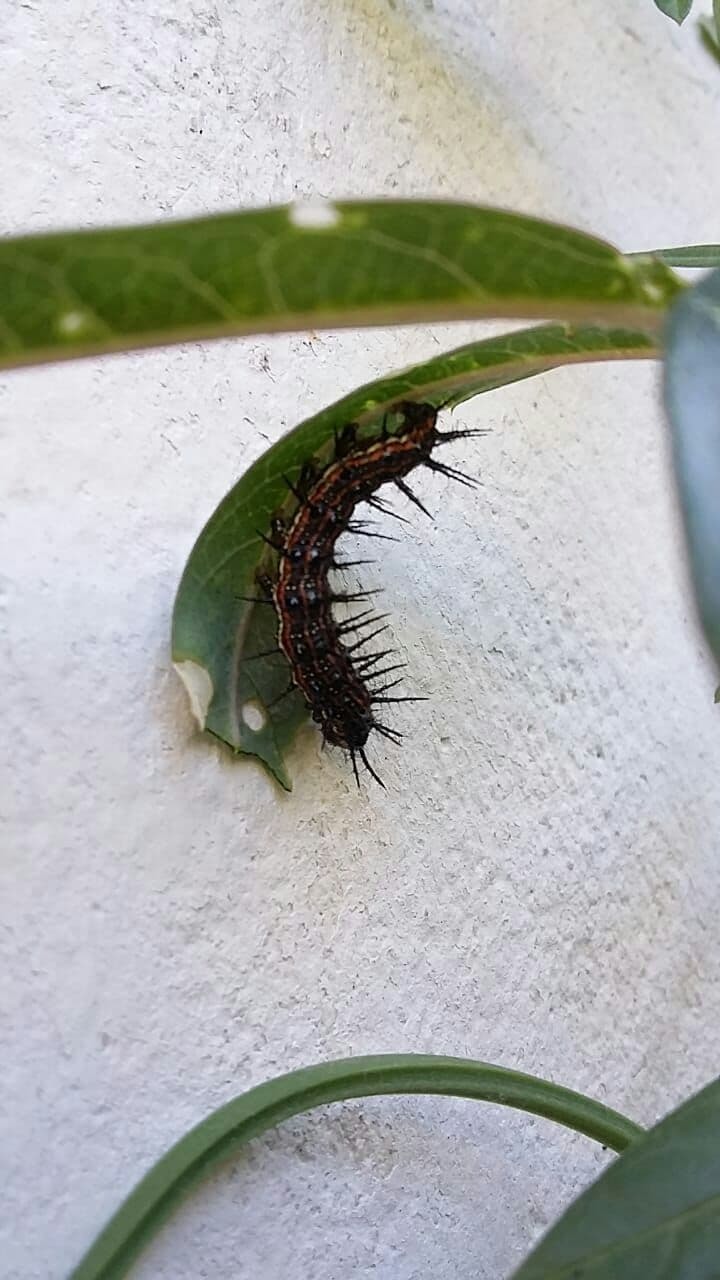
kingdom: Animalia
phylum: Arthropoda
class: Insecta
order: Lepidoptera
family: Nymphalidae
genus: Dione
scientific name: Dione vanillae
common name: Gulf fritillary
